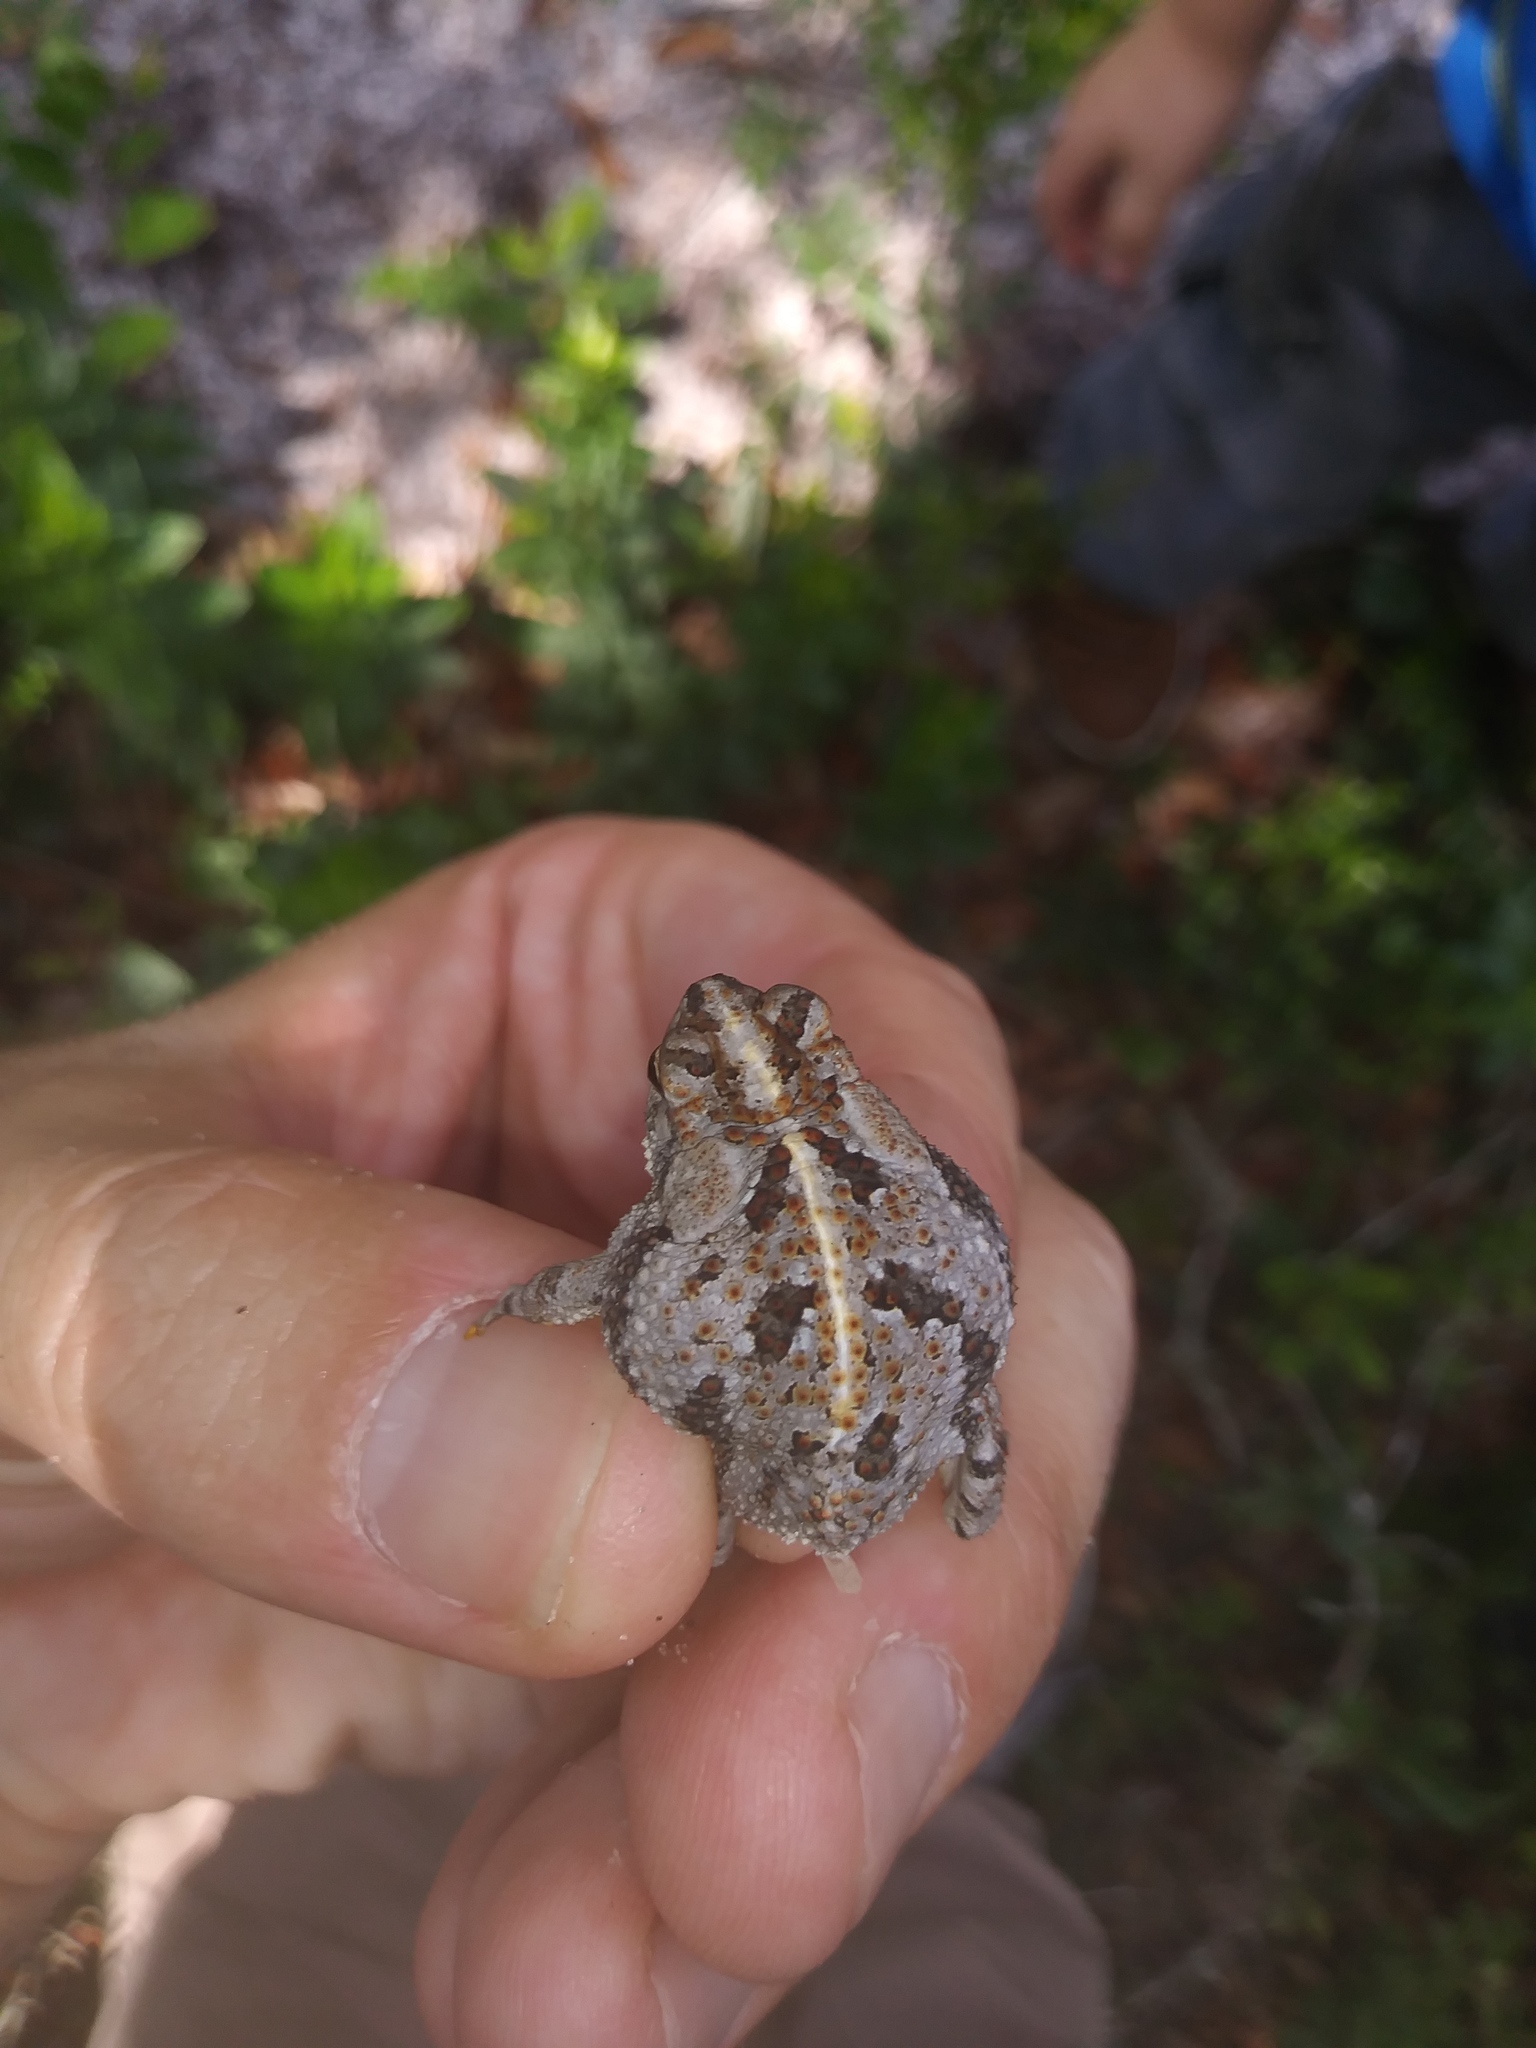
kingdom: Animalia
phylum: Chordata
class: Amphibia
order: Anura
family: Bufonidae
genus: Anaxyrus
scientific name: Anaxyrus quercicus
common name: Oak toad
